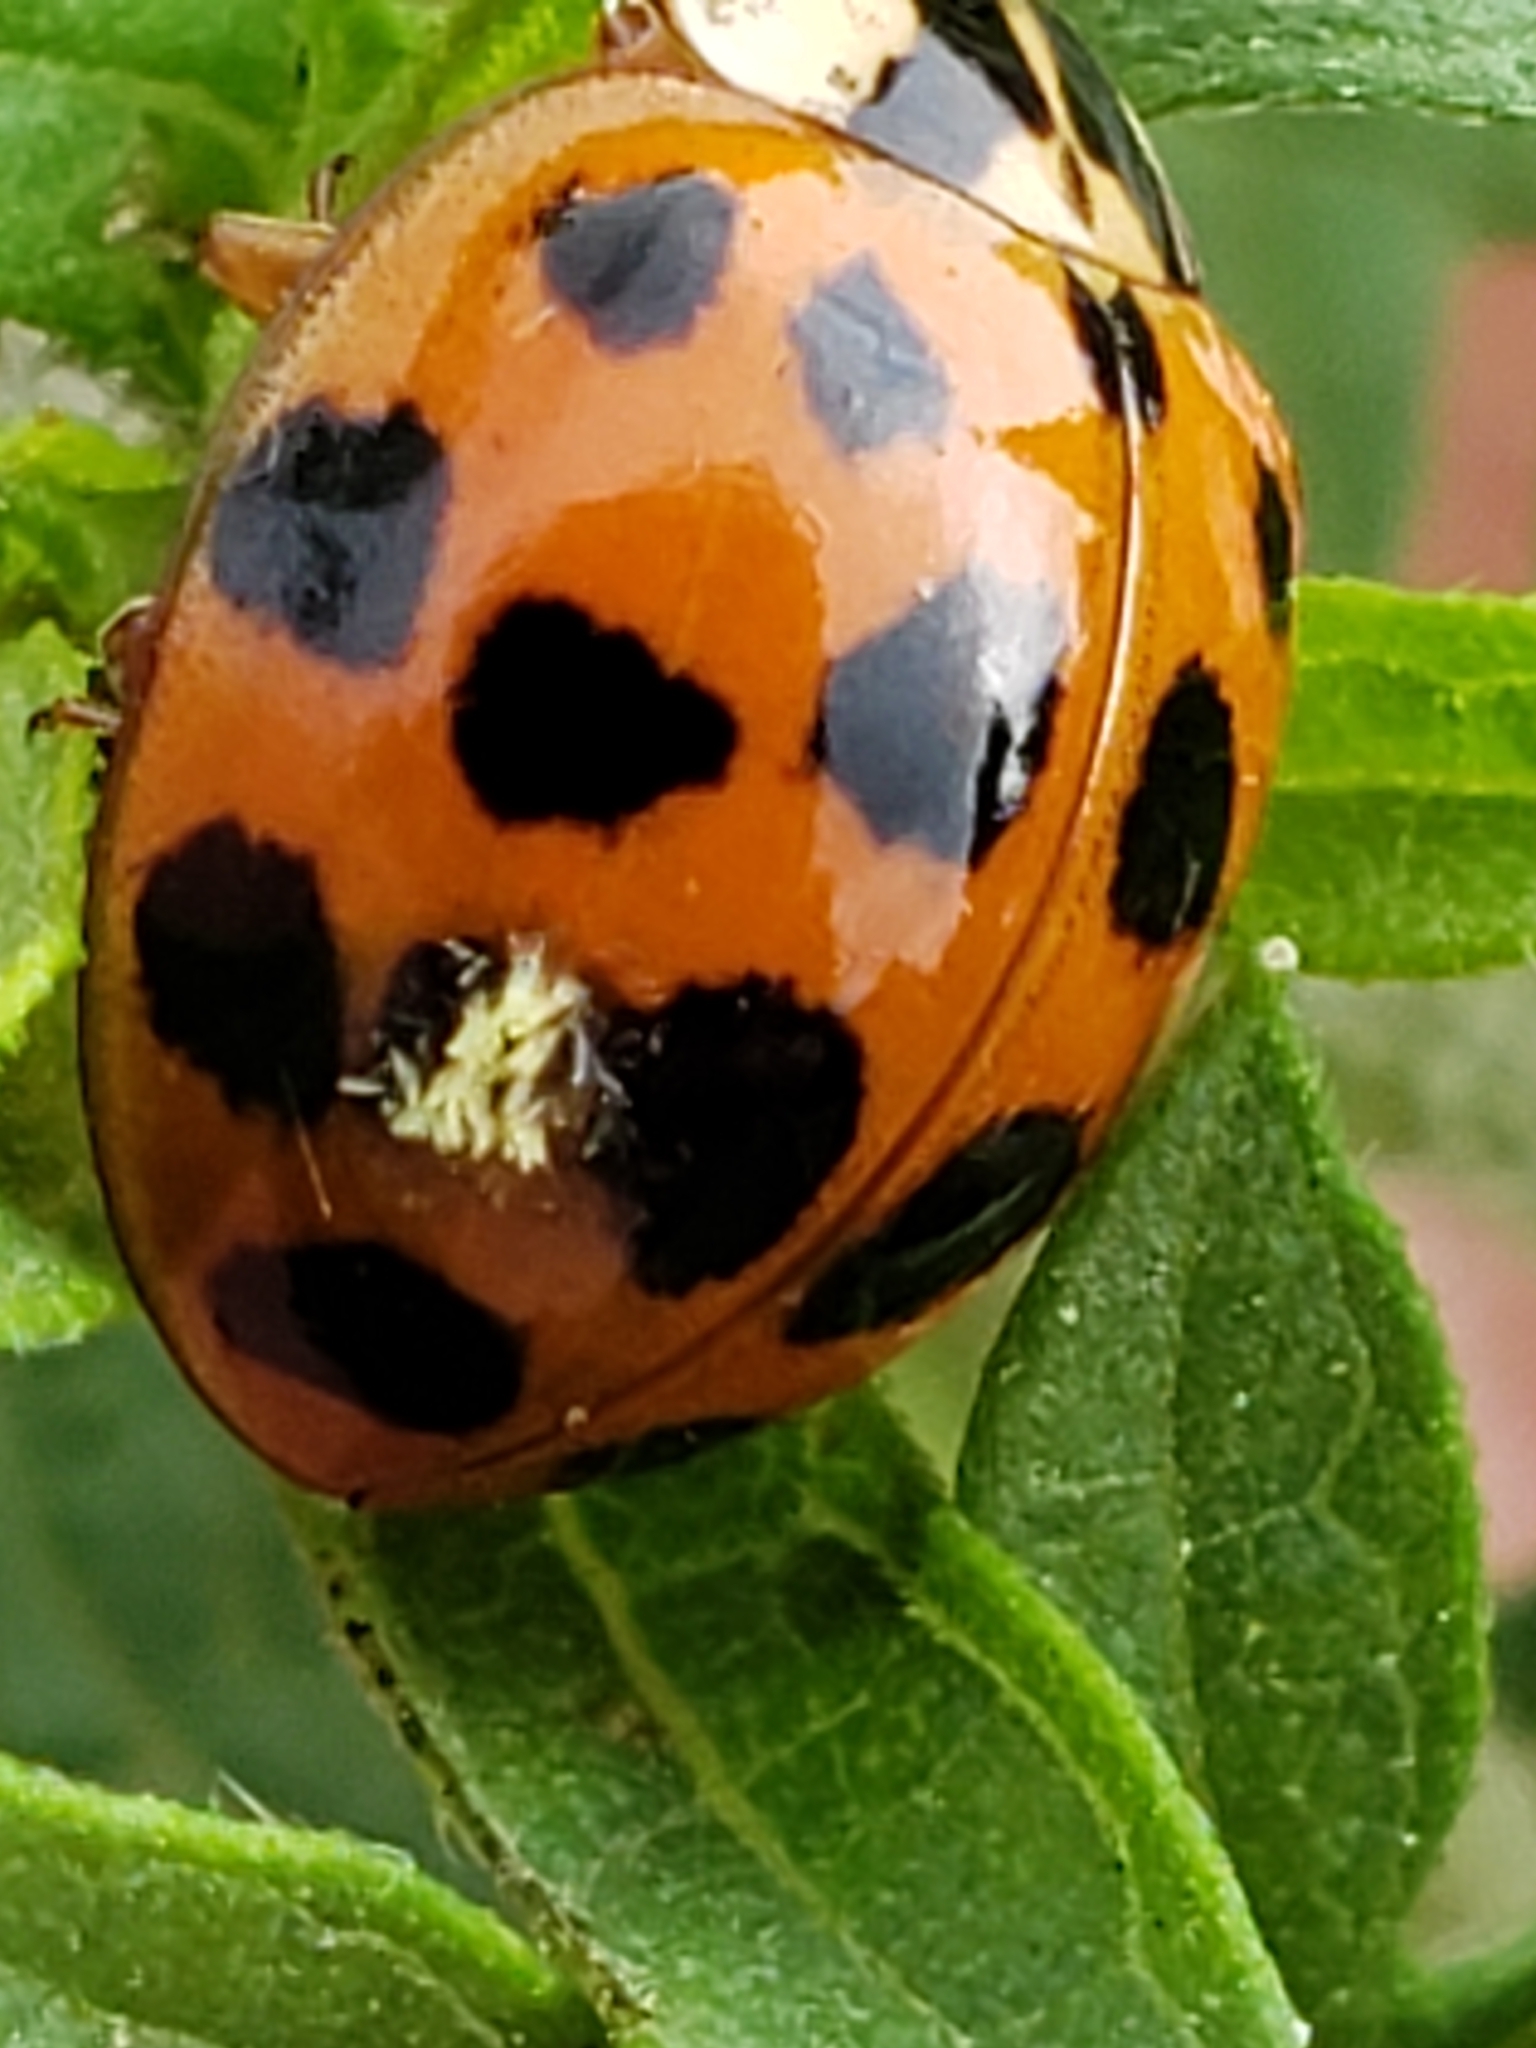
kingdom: Animalia
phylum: Arthropoda
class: Insecta
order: Coleoptera
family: Coccinellidae
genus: Harmonia
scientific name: Harmonia axyridis
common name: Harlequin ladybird
